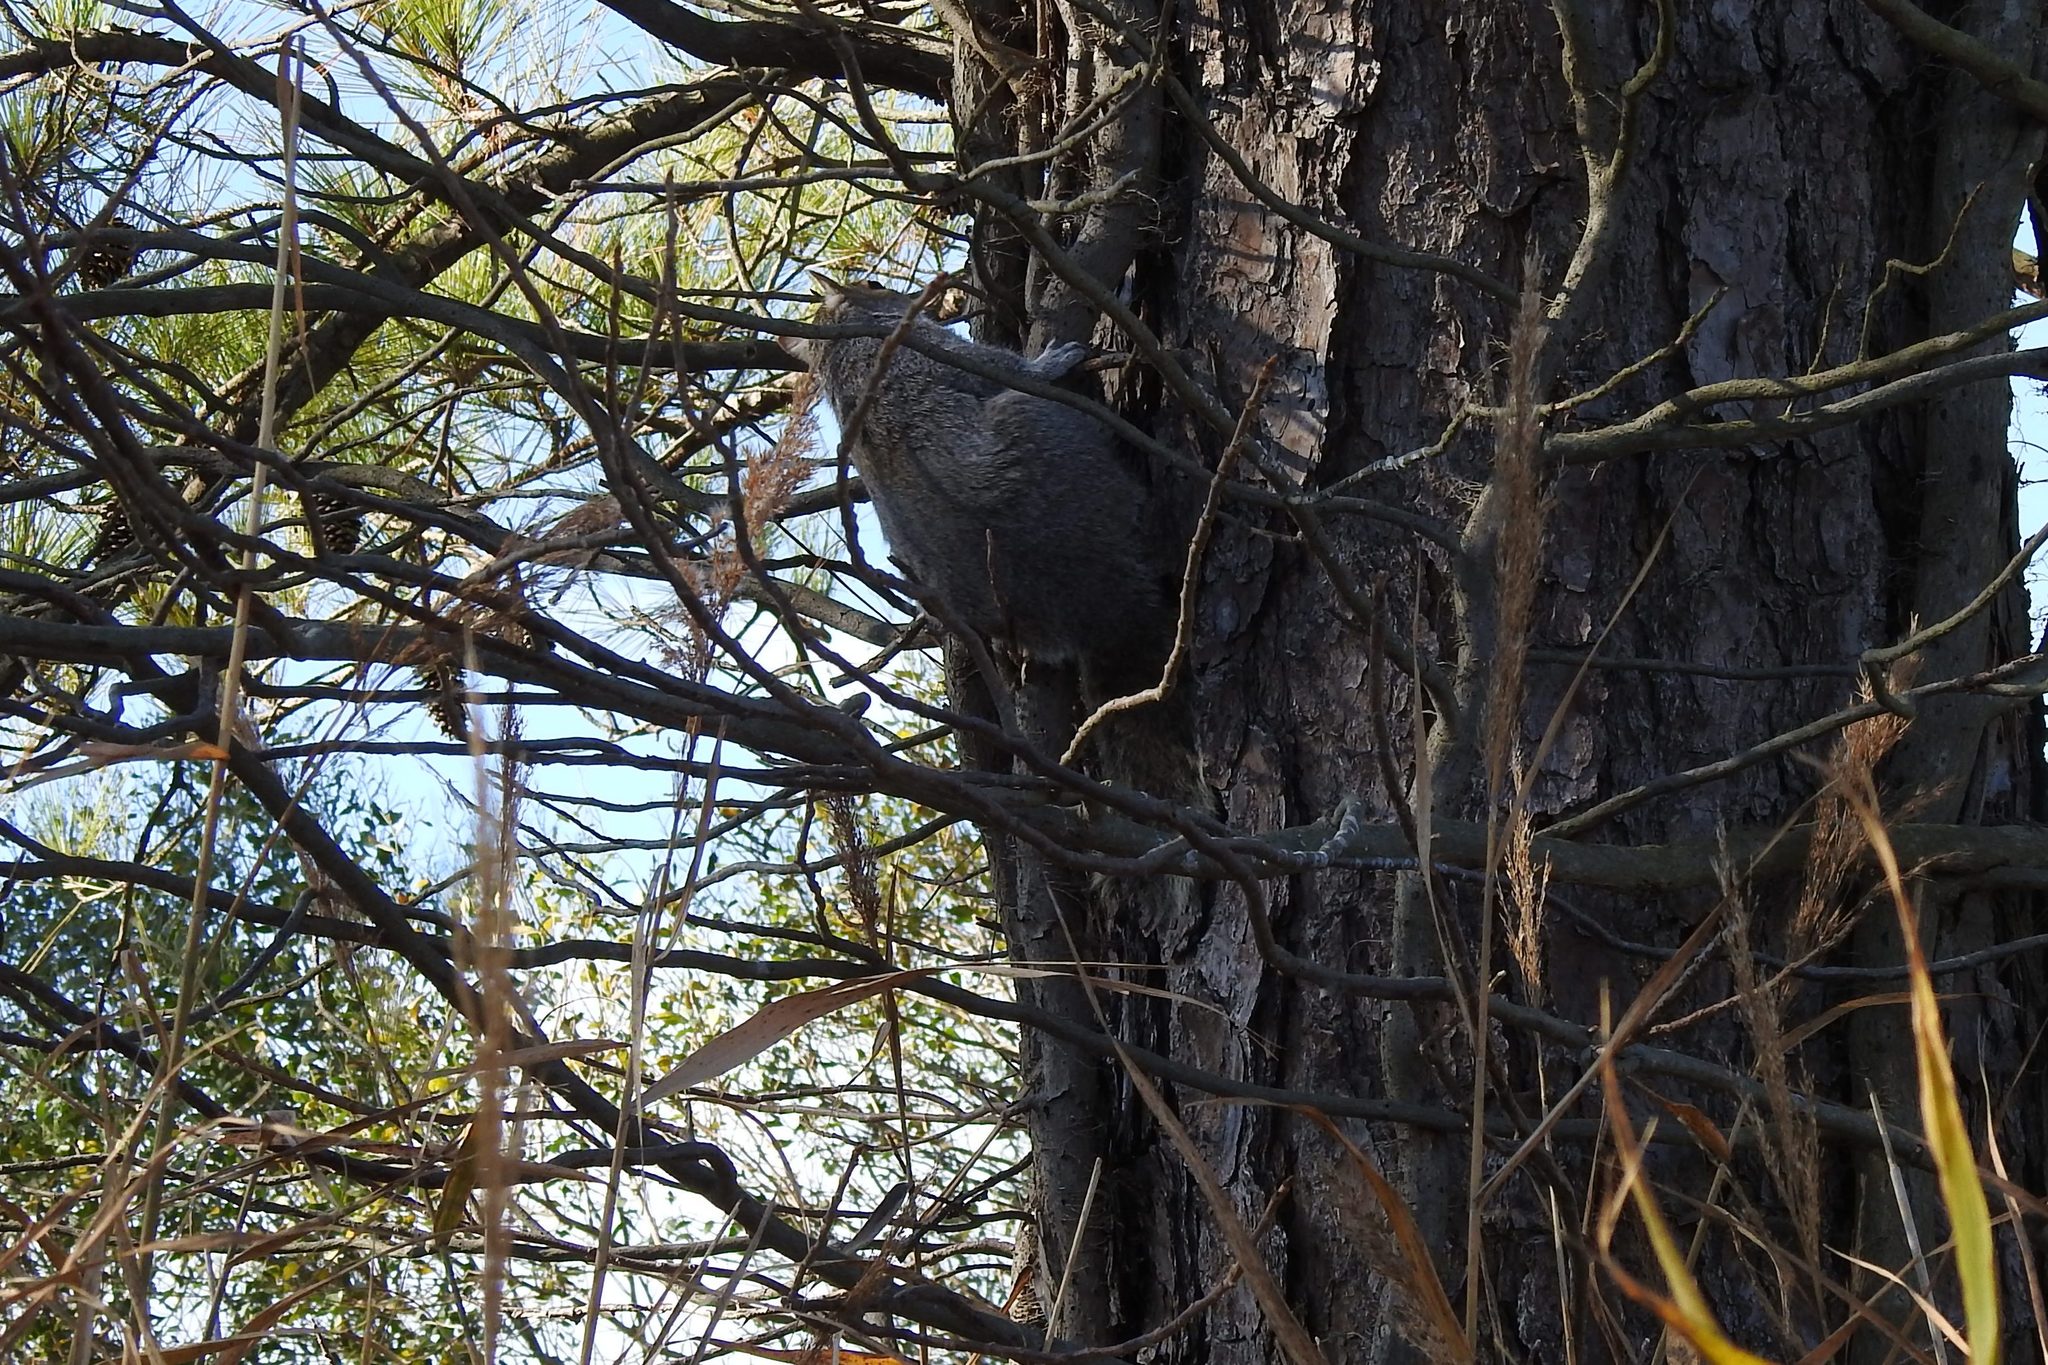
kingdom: Animalia
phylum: Chordata
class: Mammalia
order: Rodentia
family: Sciuridae
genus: Sciurus
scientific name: Sciurus carolinensis
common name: Eastern gray squirrel
